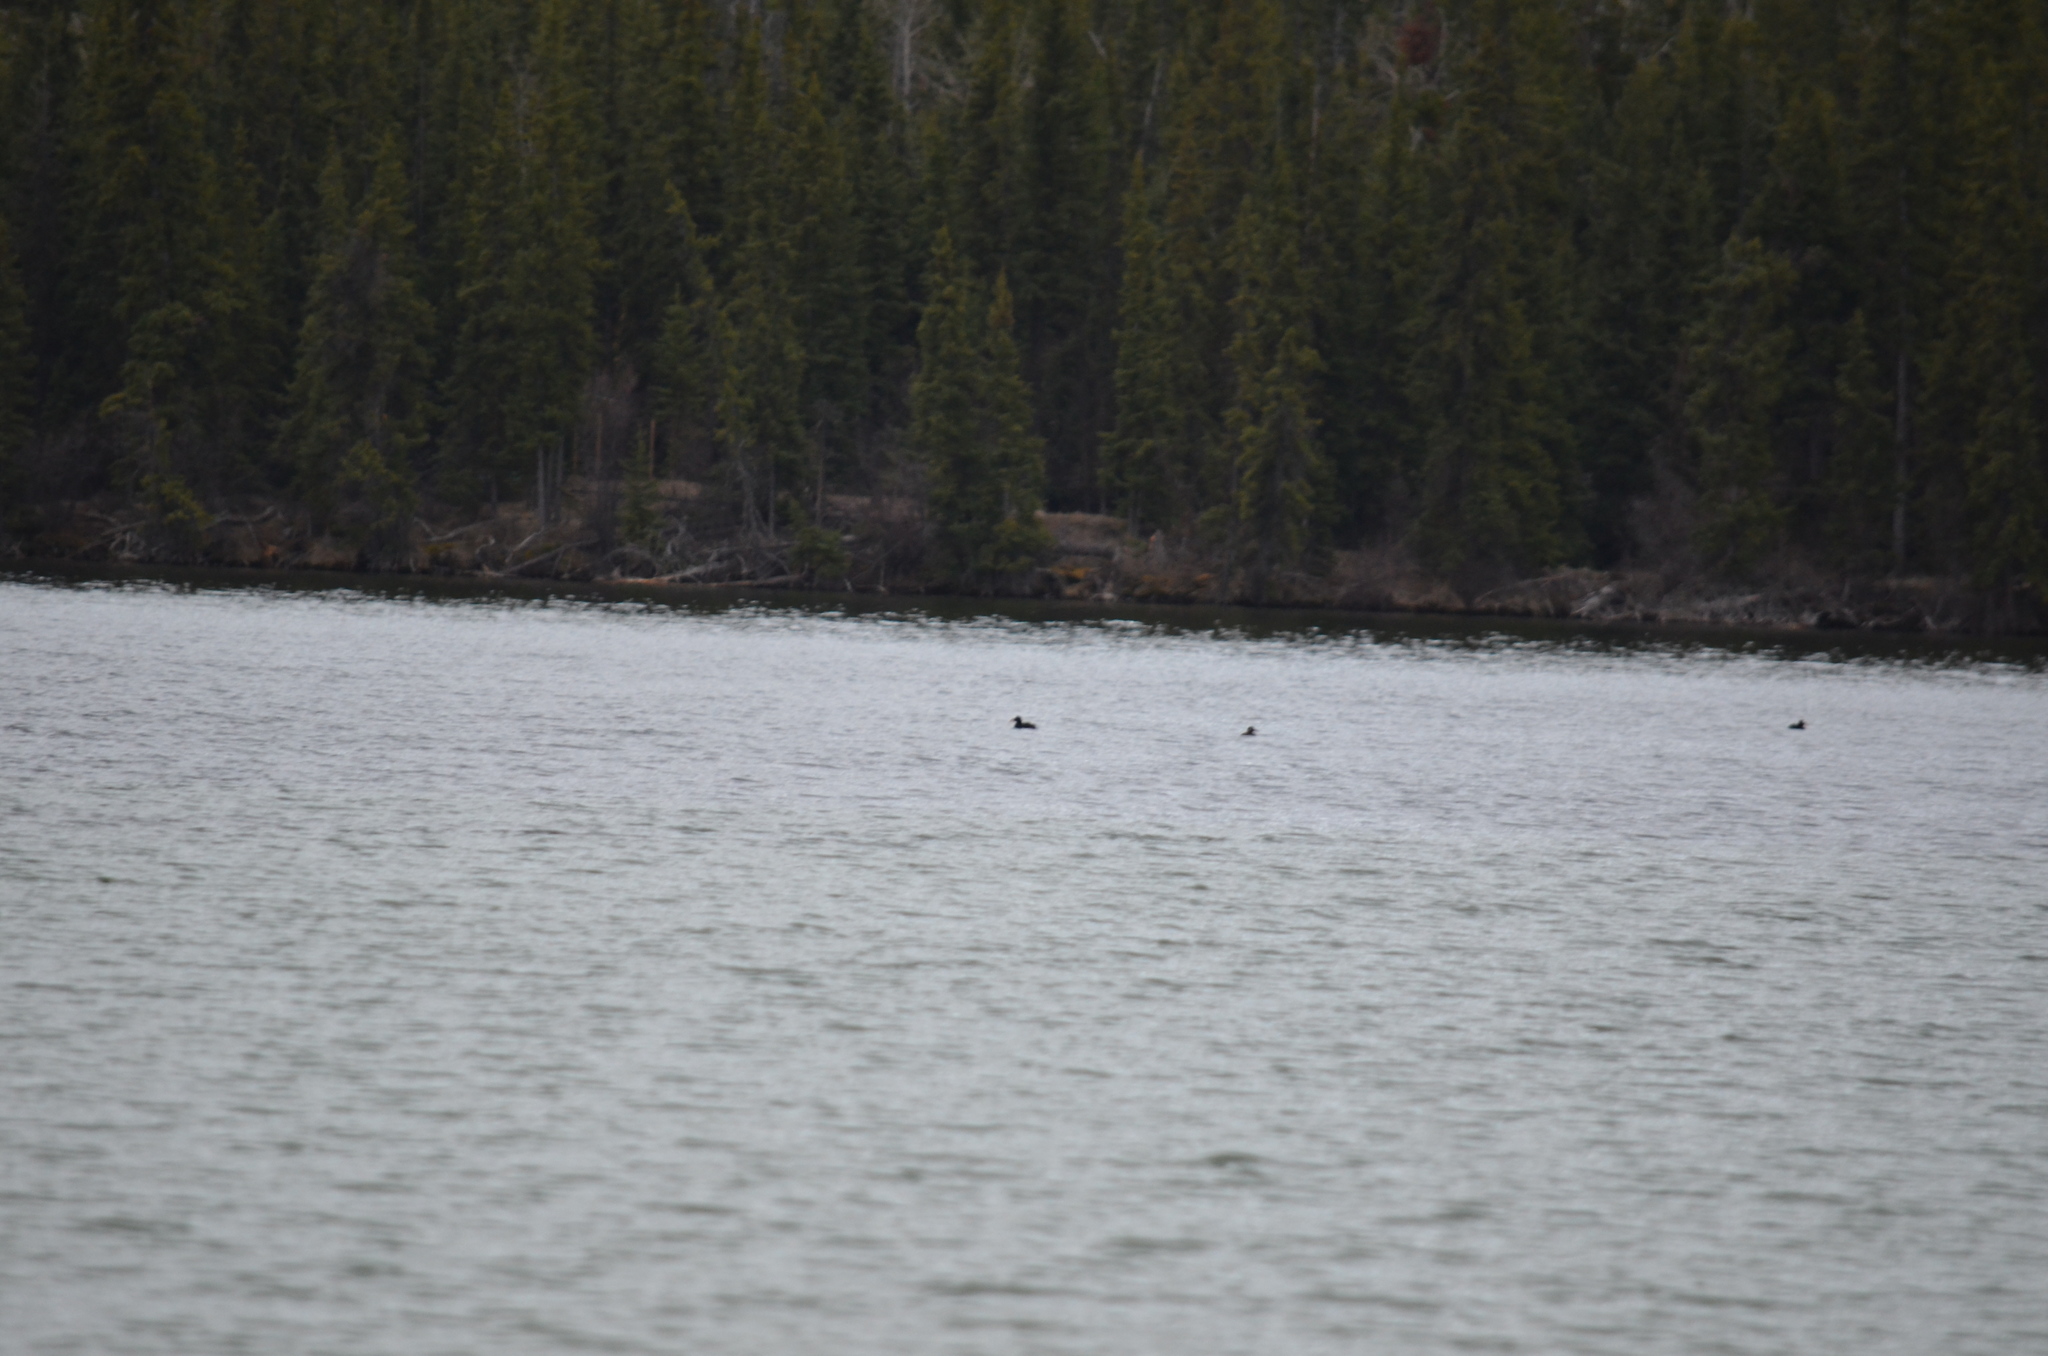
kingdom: Animalia
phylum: Chordata
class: Aves
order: Anseriformes
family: Anatidae
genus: Melanitta
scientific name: Melanitta perspicillata
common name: Surf scoter
